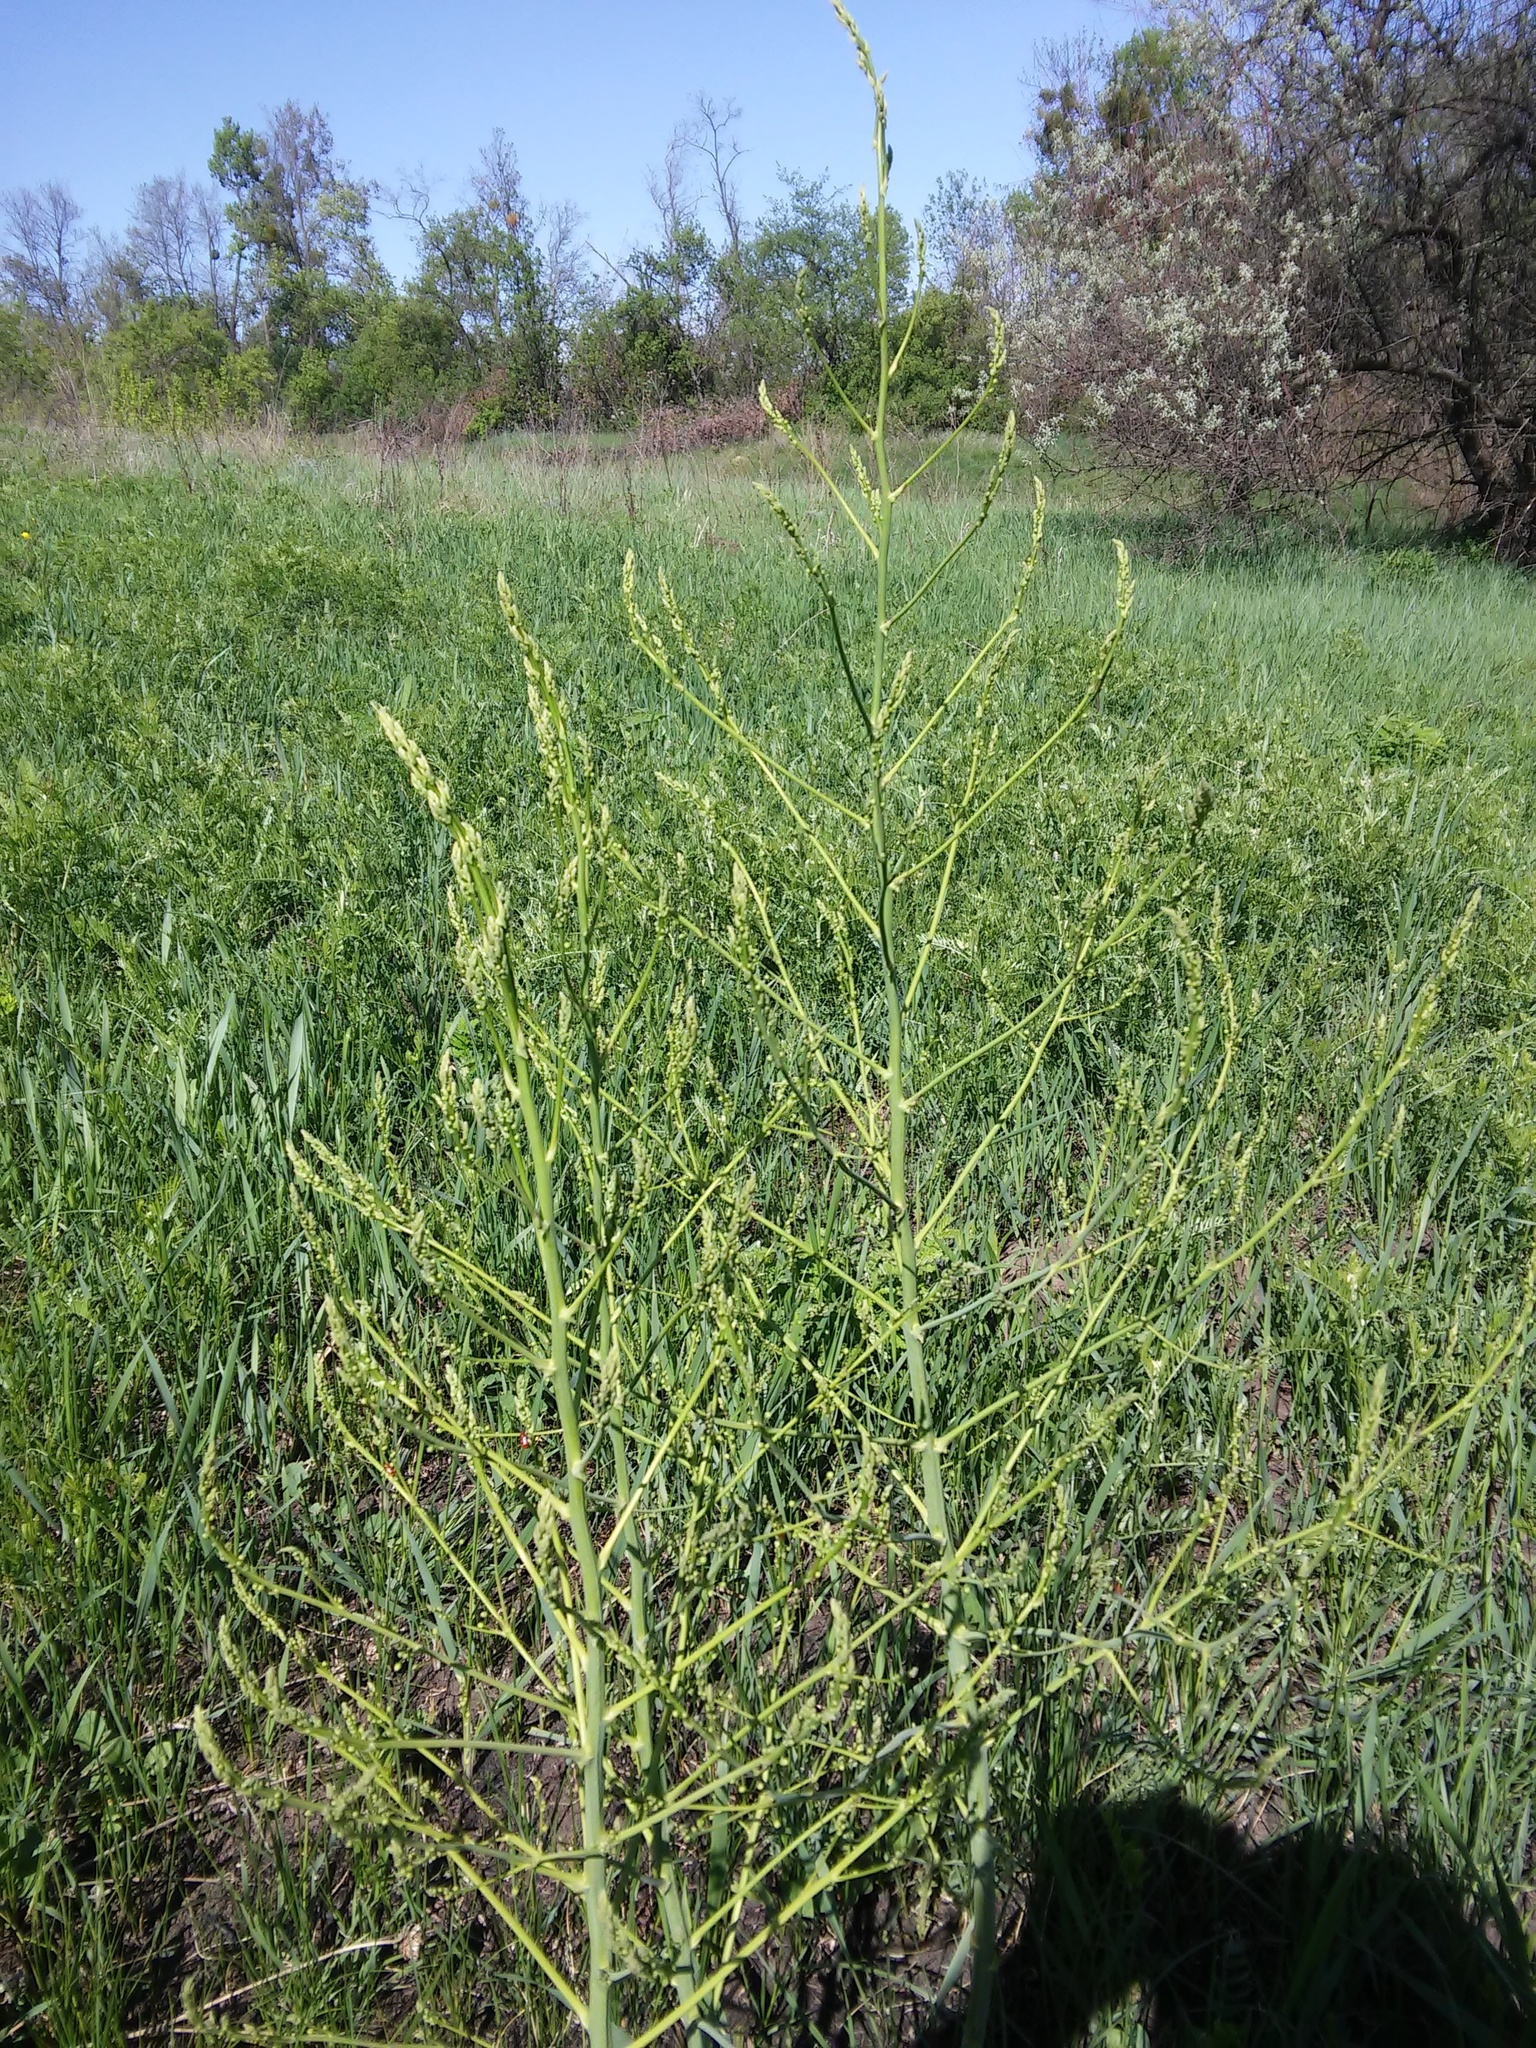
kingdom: Plantae
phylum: Tracheophyta
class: Liliopsida
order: Asparagales
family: Asparagaceae
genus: Asparagus
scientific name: Asparagus officinalis
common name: Garden asparagus
